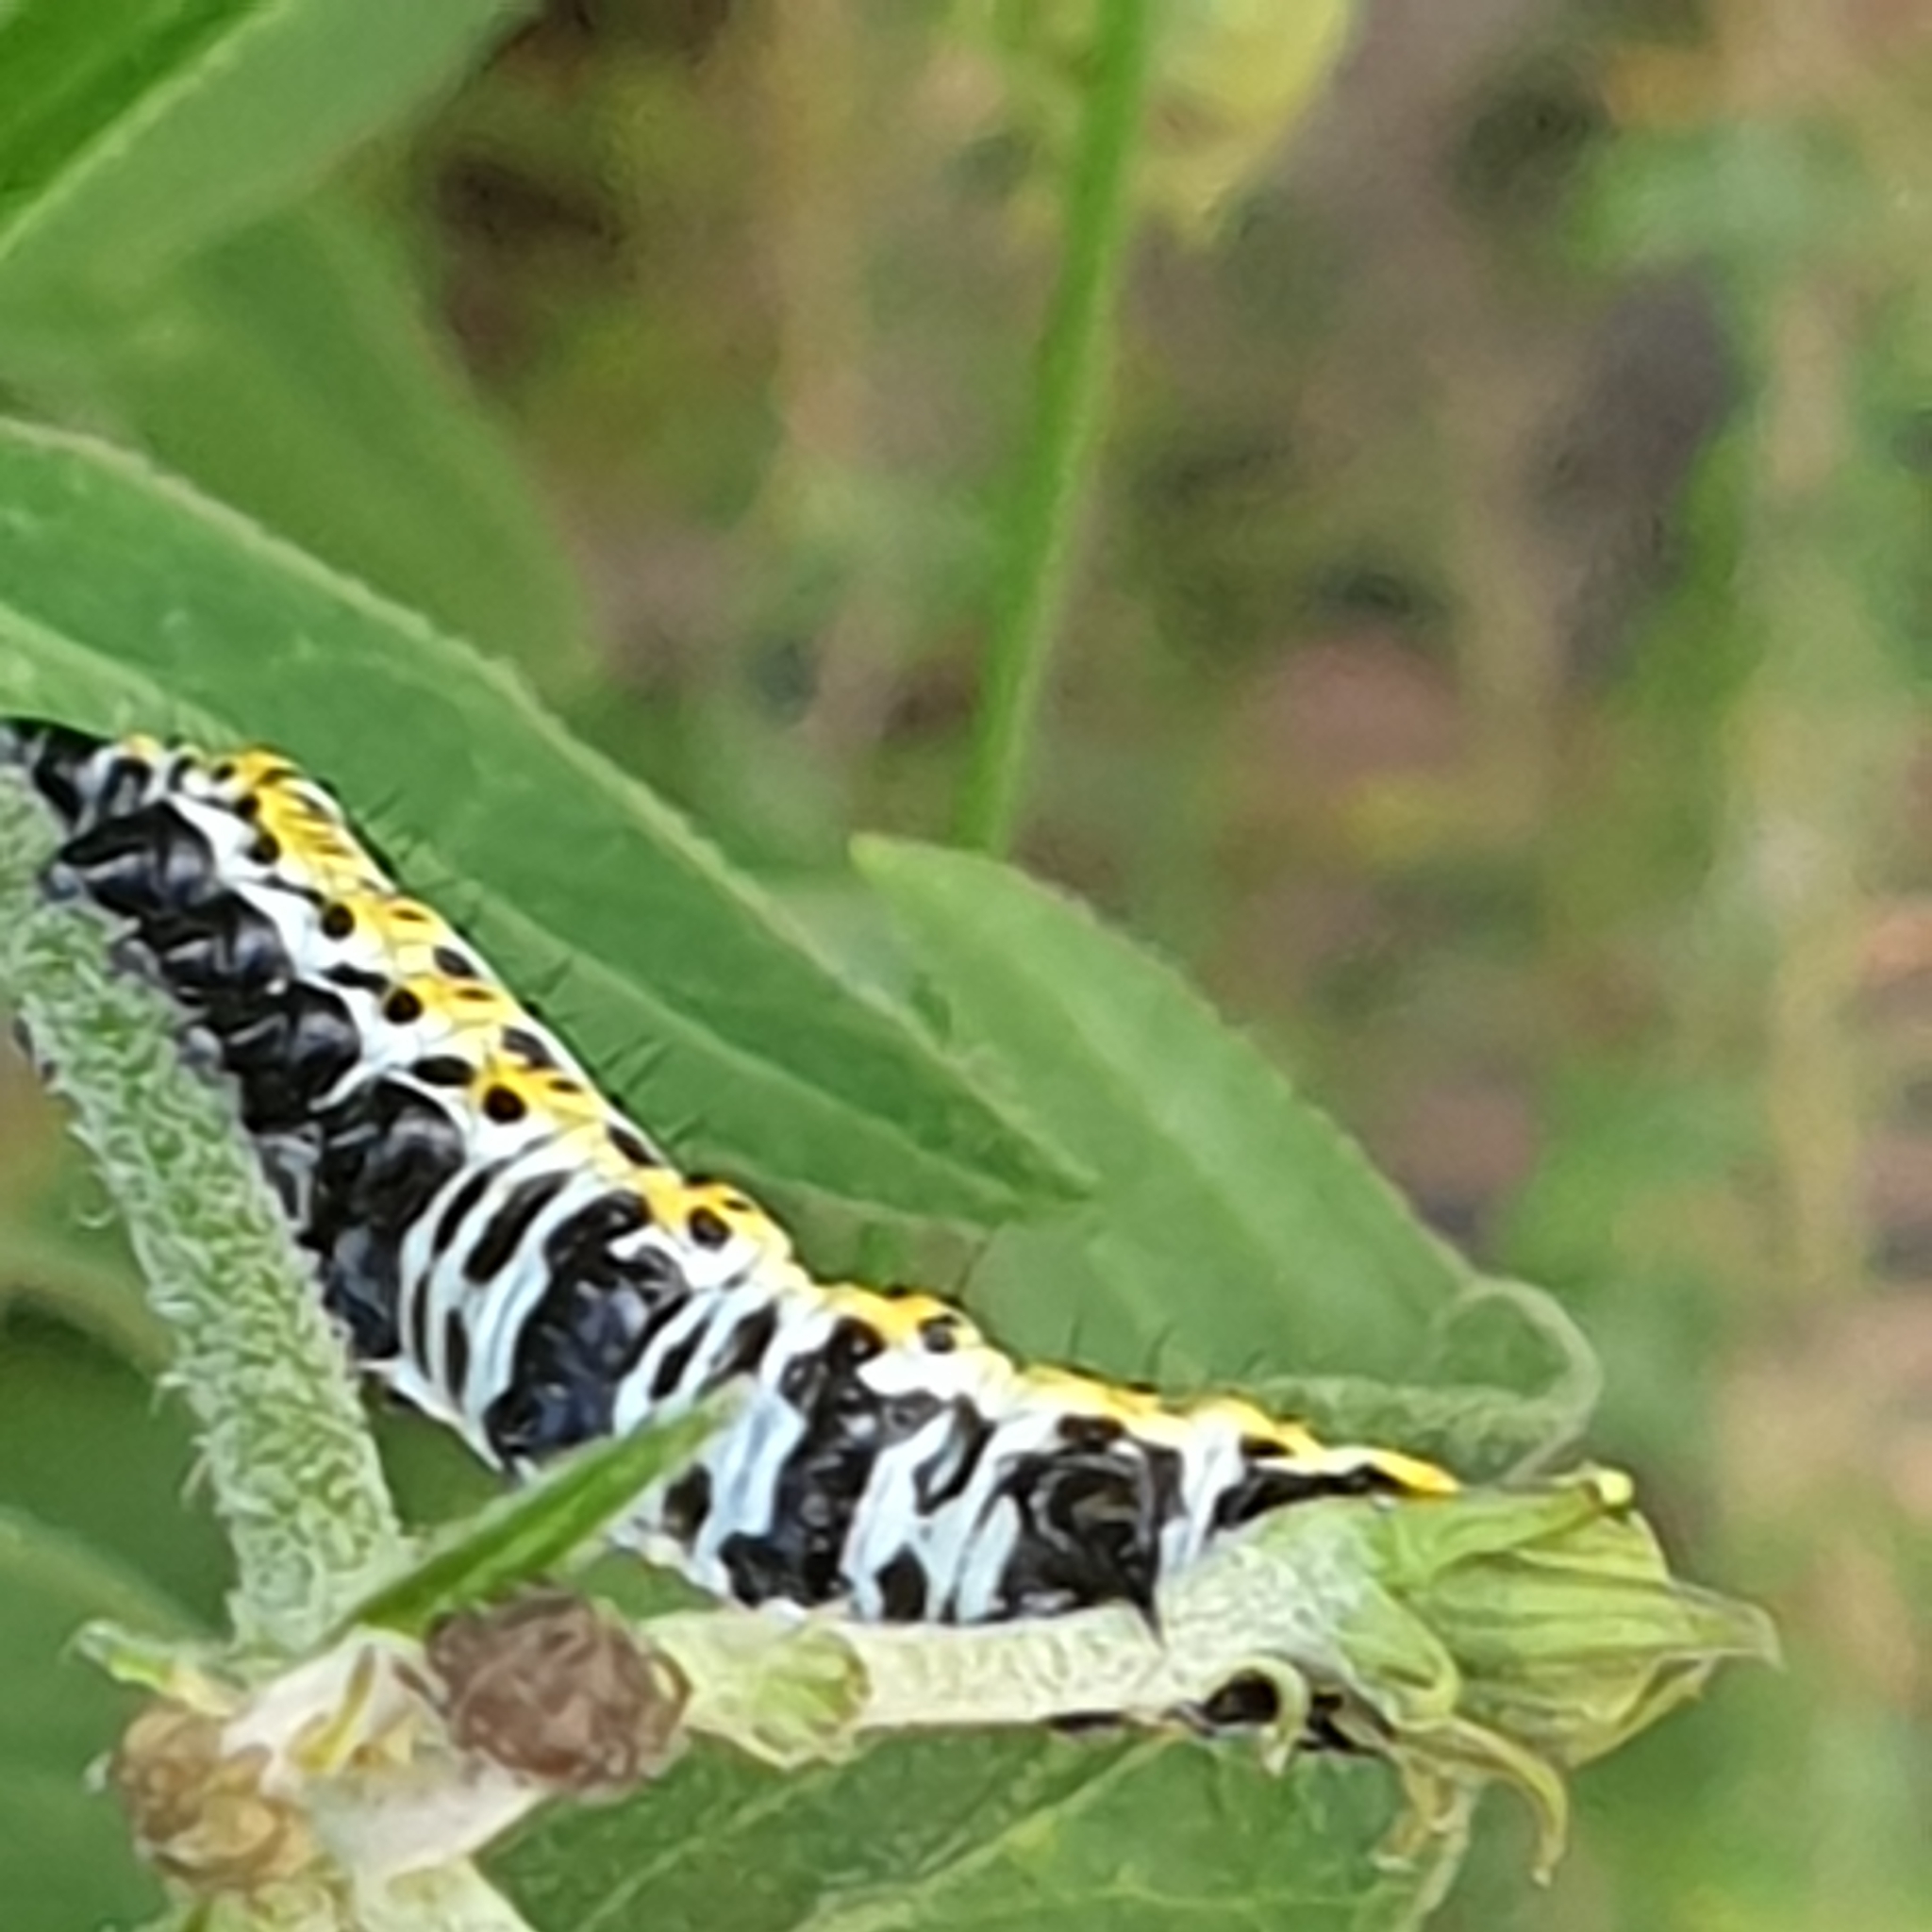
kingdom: Animalia
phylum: Arthropoda
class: Insecta
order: Lepidoptera
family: Noctuidae
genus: Cucullia
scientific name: Cucullia lactucae
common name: Lettuce shark
